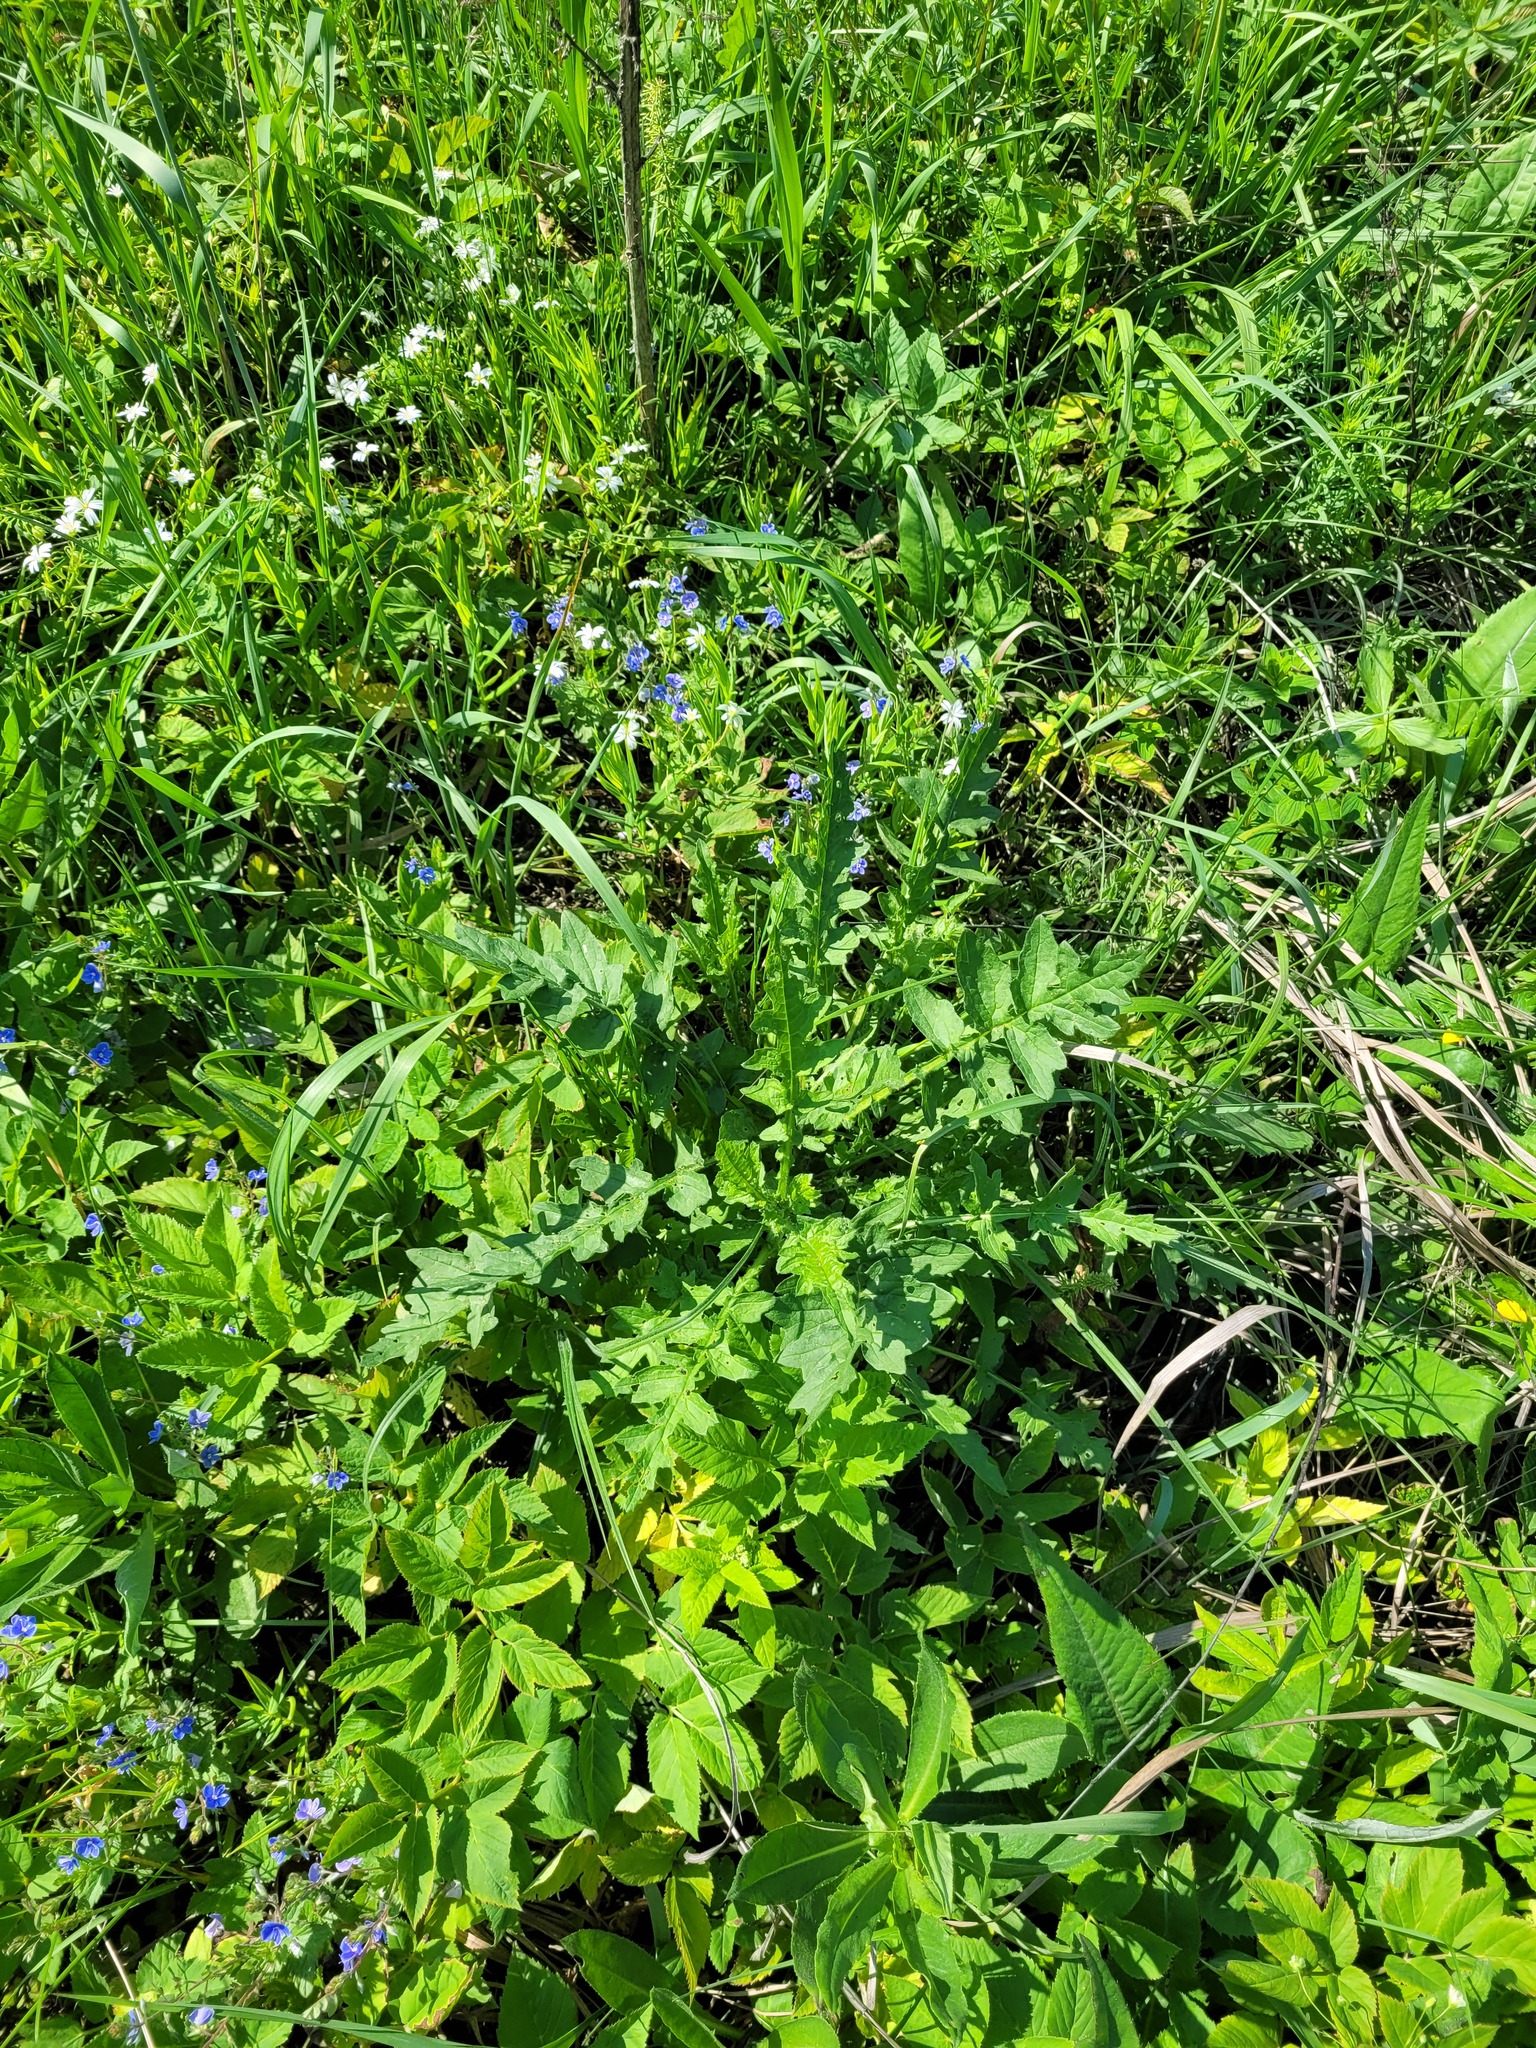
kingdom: Plantae
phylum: Tracheophyta
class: Magnoliopsida
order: Asterales
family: Asteraceae
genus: Carduus
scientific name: Carduus crispus
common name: Welted thistle
